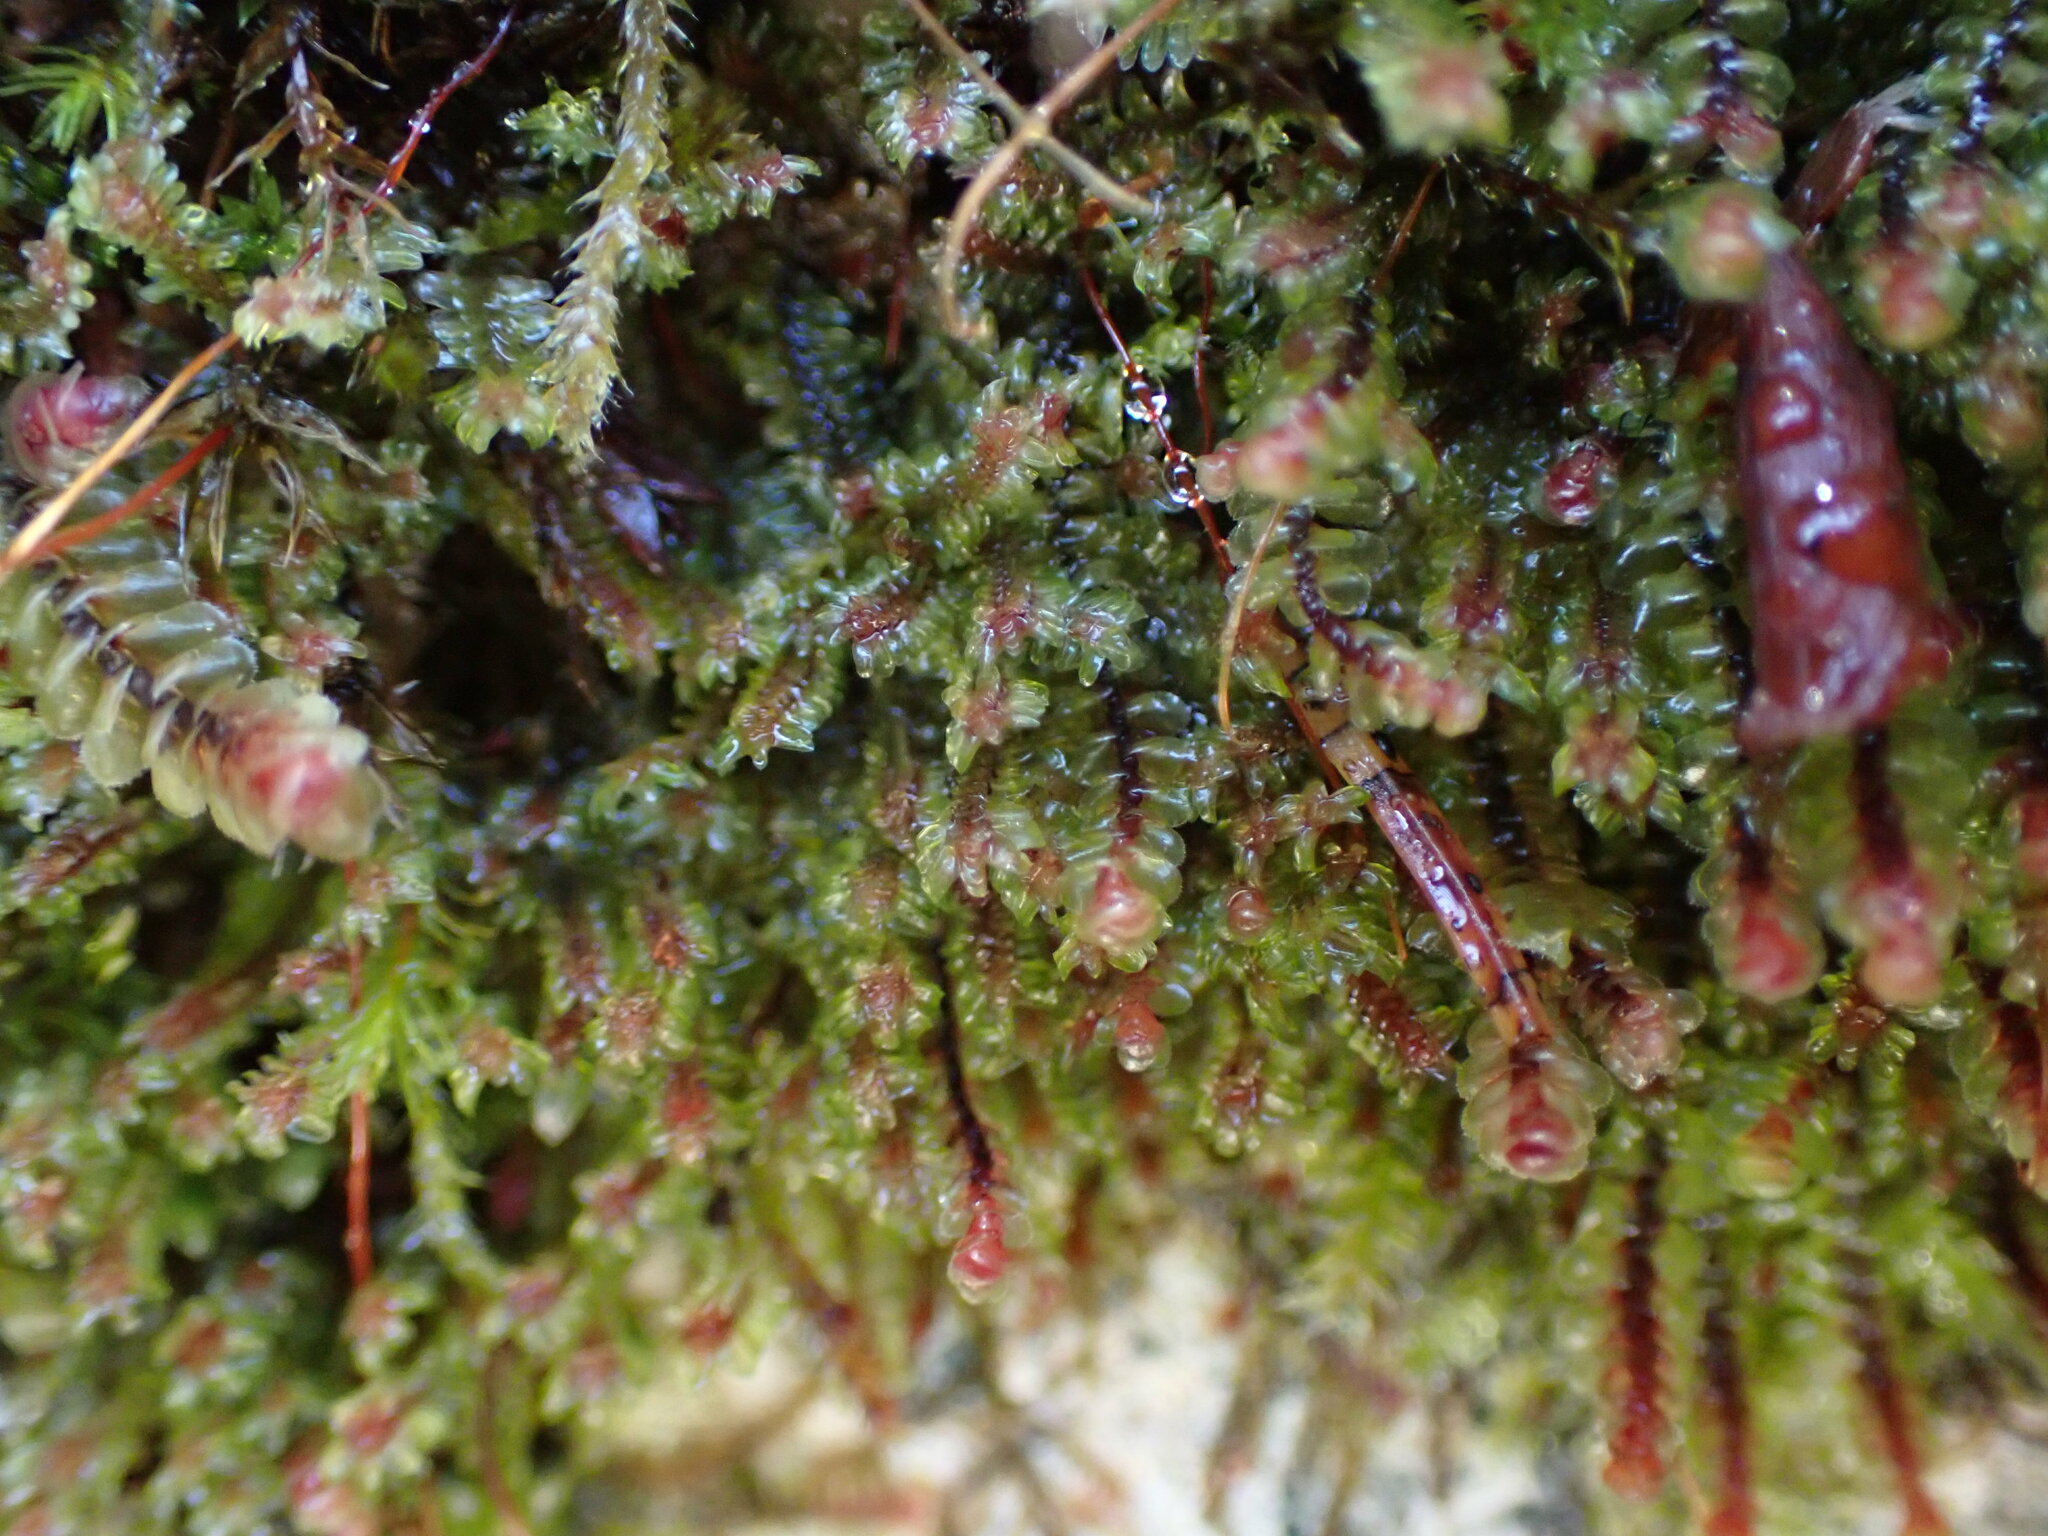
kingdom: Plantae
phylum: Marchantiophyta
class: Jungermanniopsida
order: Jungermanniales
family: Scapaniaceae
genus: Scapania
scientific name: Scapania americana
